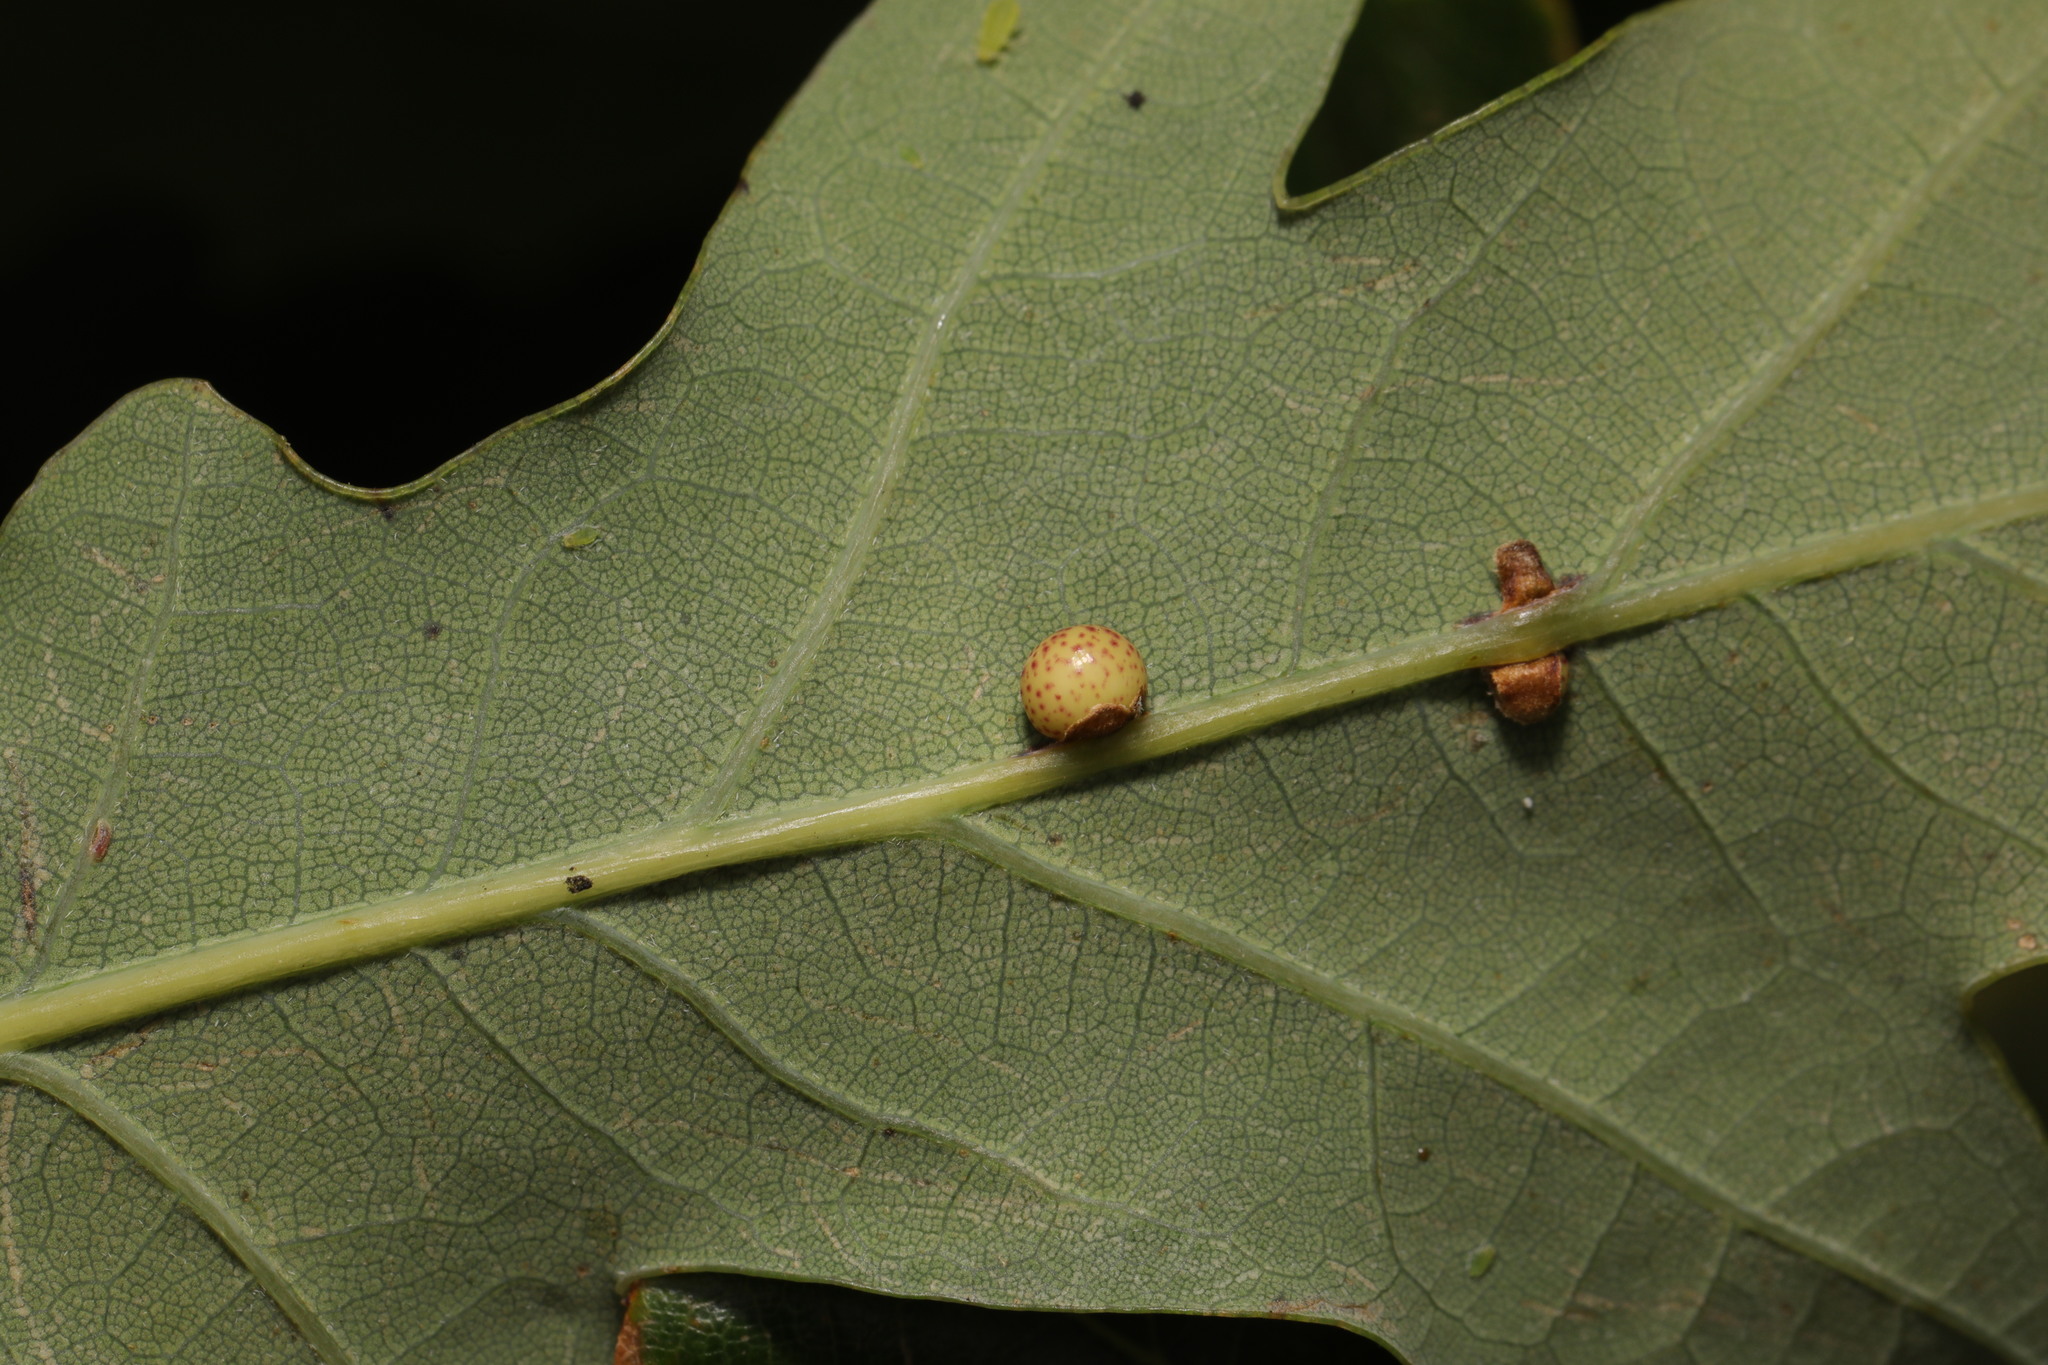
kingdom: Animalia
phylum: Arthropoda
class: Insecta
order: Hymenoptera
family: Cynipidae
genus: Neuroterus
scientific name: Neuroterus anthracinus
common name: Oyster gall
